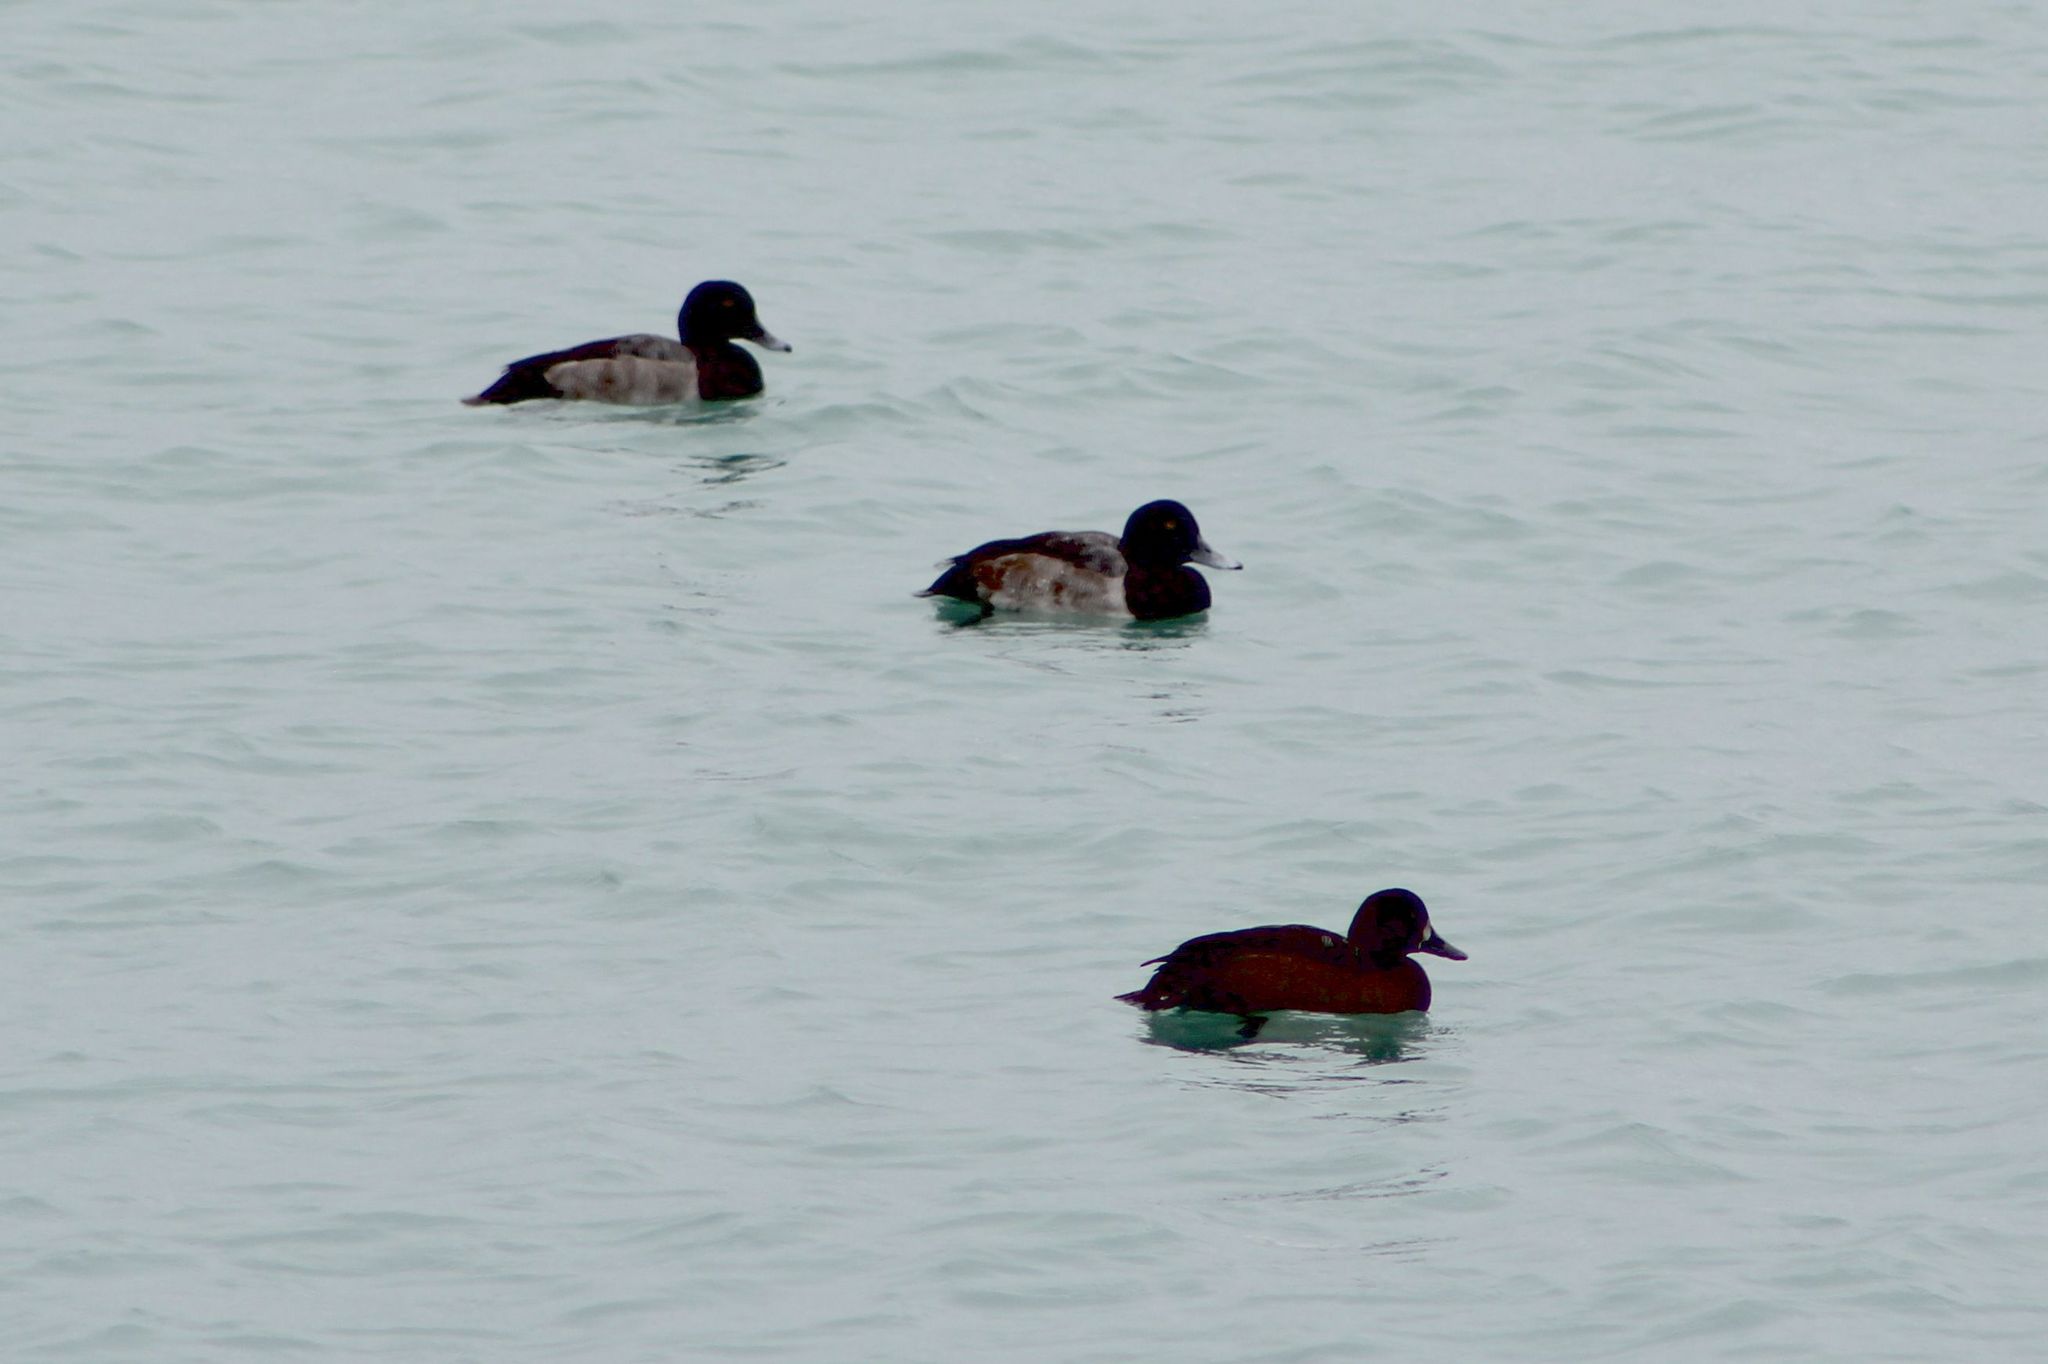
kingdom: Animalia
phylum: Chordata
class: Aves
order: Anseriformes
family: Anatidae
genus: Aythya
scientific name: Aythya marila
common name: Greater scaup
